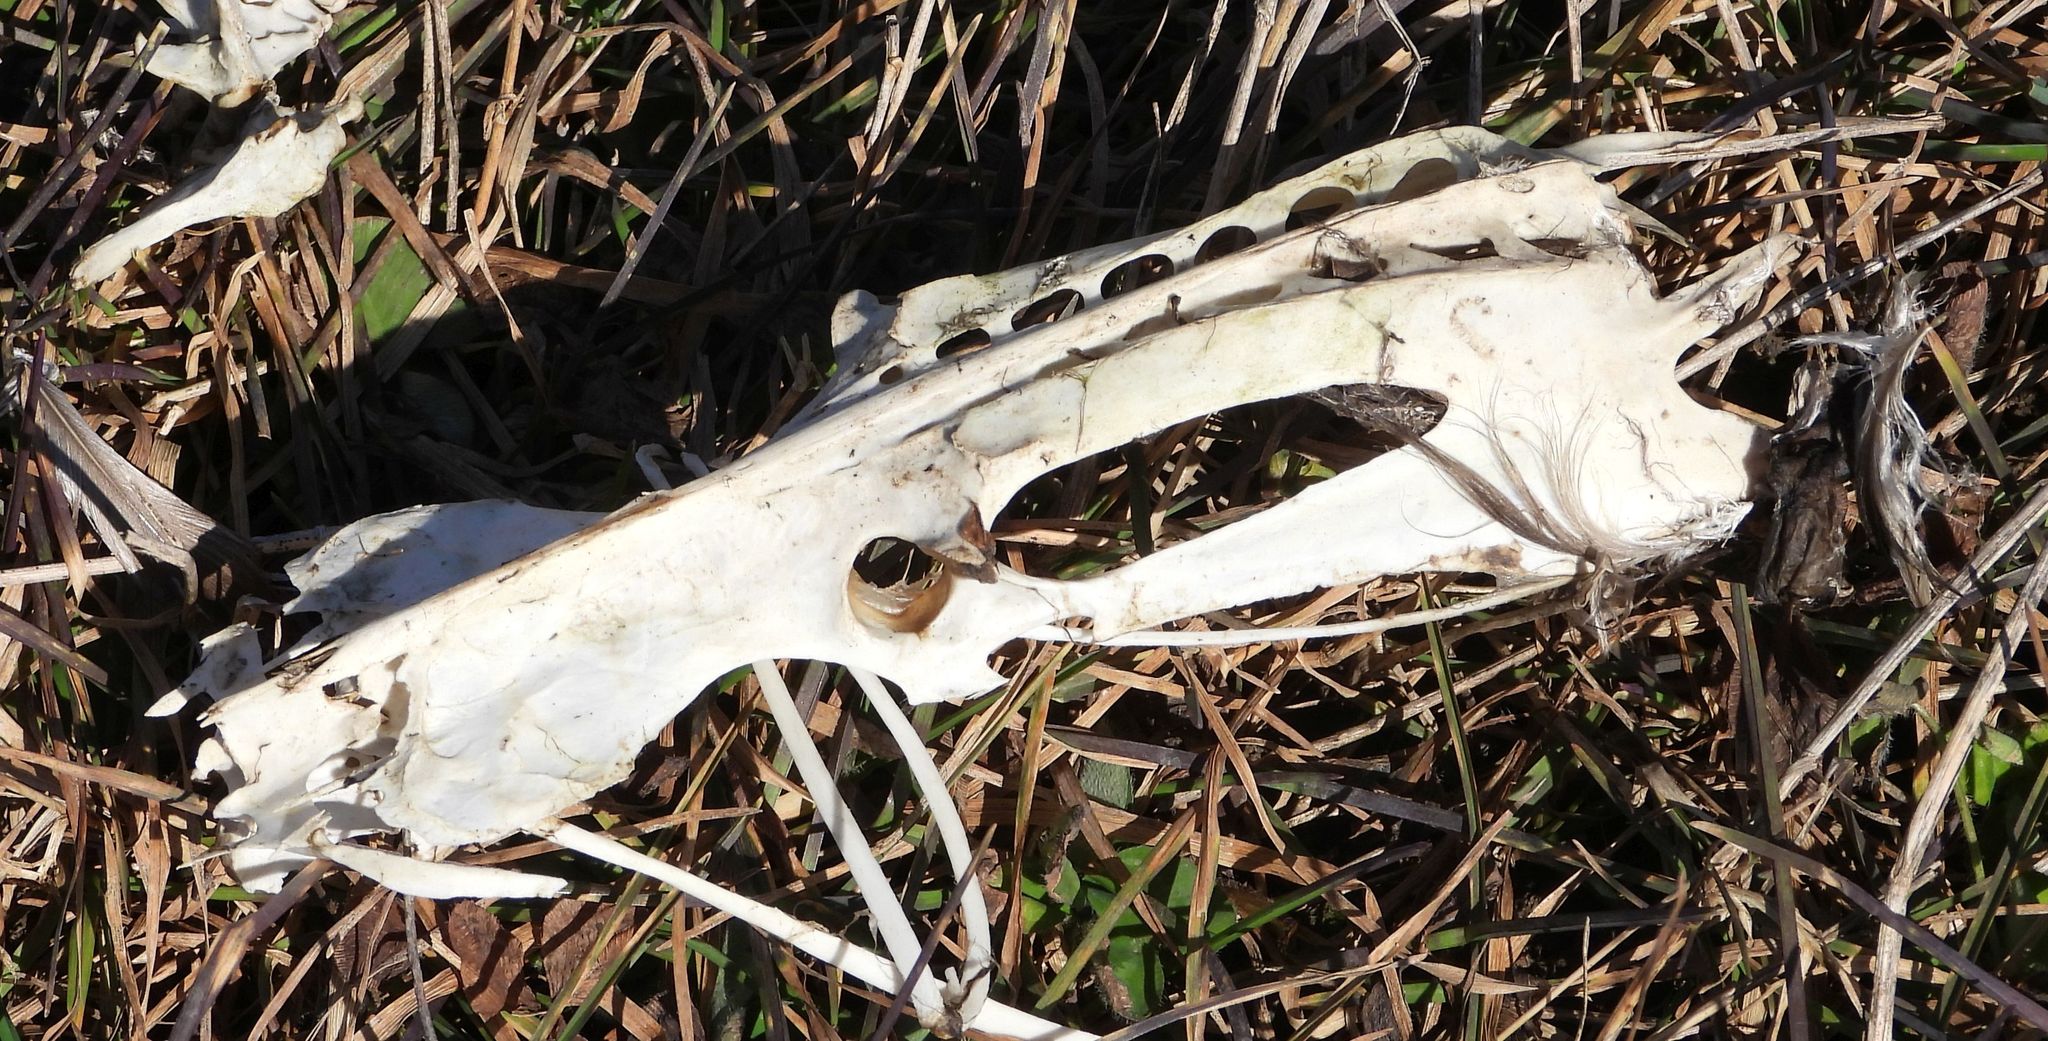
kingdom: Animalia
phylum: Chordata
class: Aves
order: Suliformes
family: Phalacrocoracidae
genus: Phalacrocorax
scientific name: Phalacrocorax auritus
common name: Double-crested cormorant
